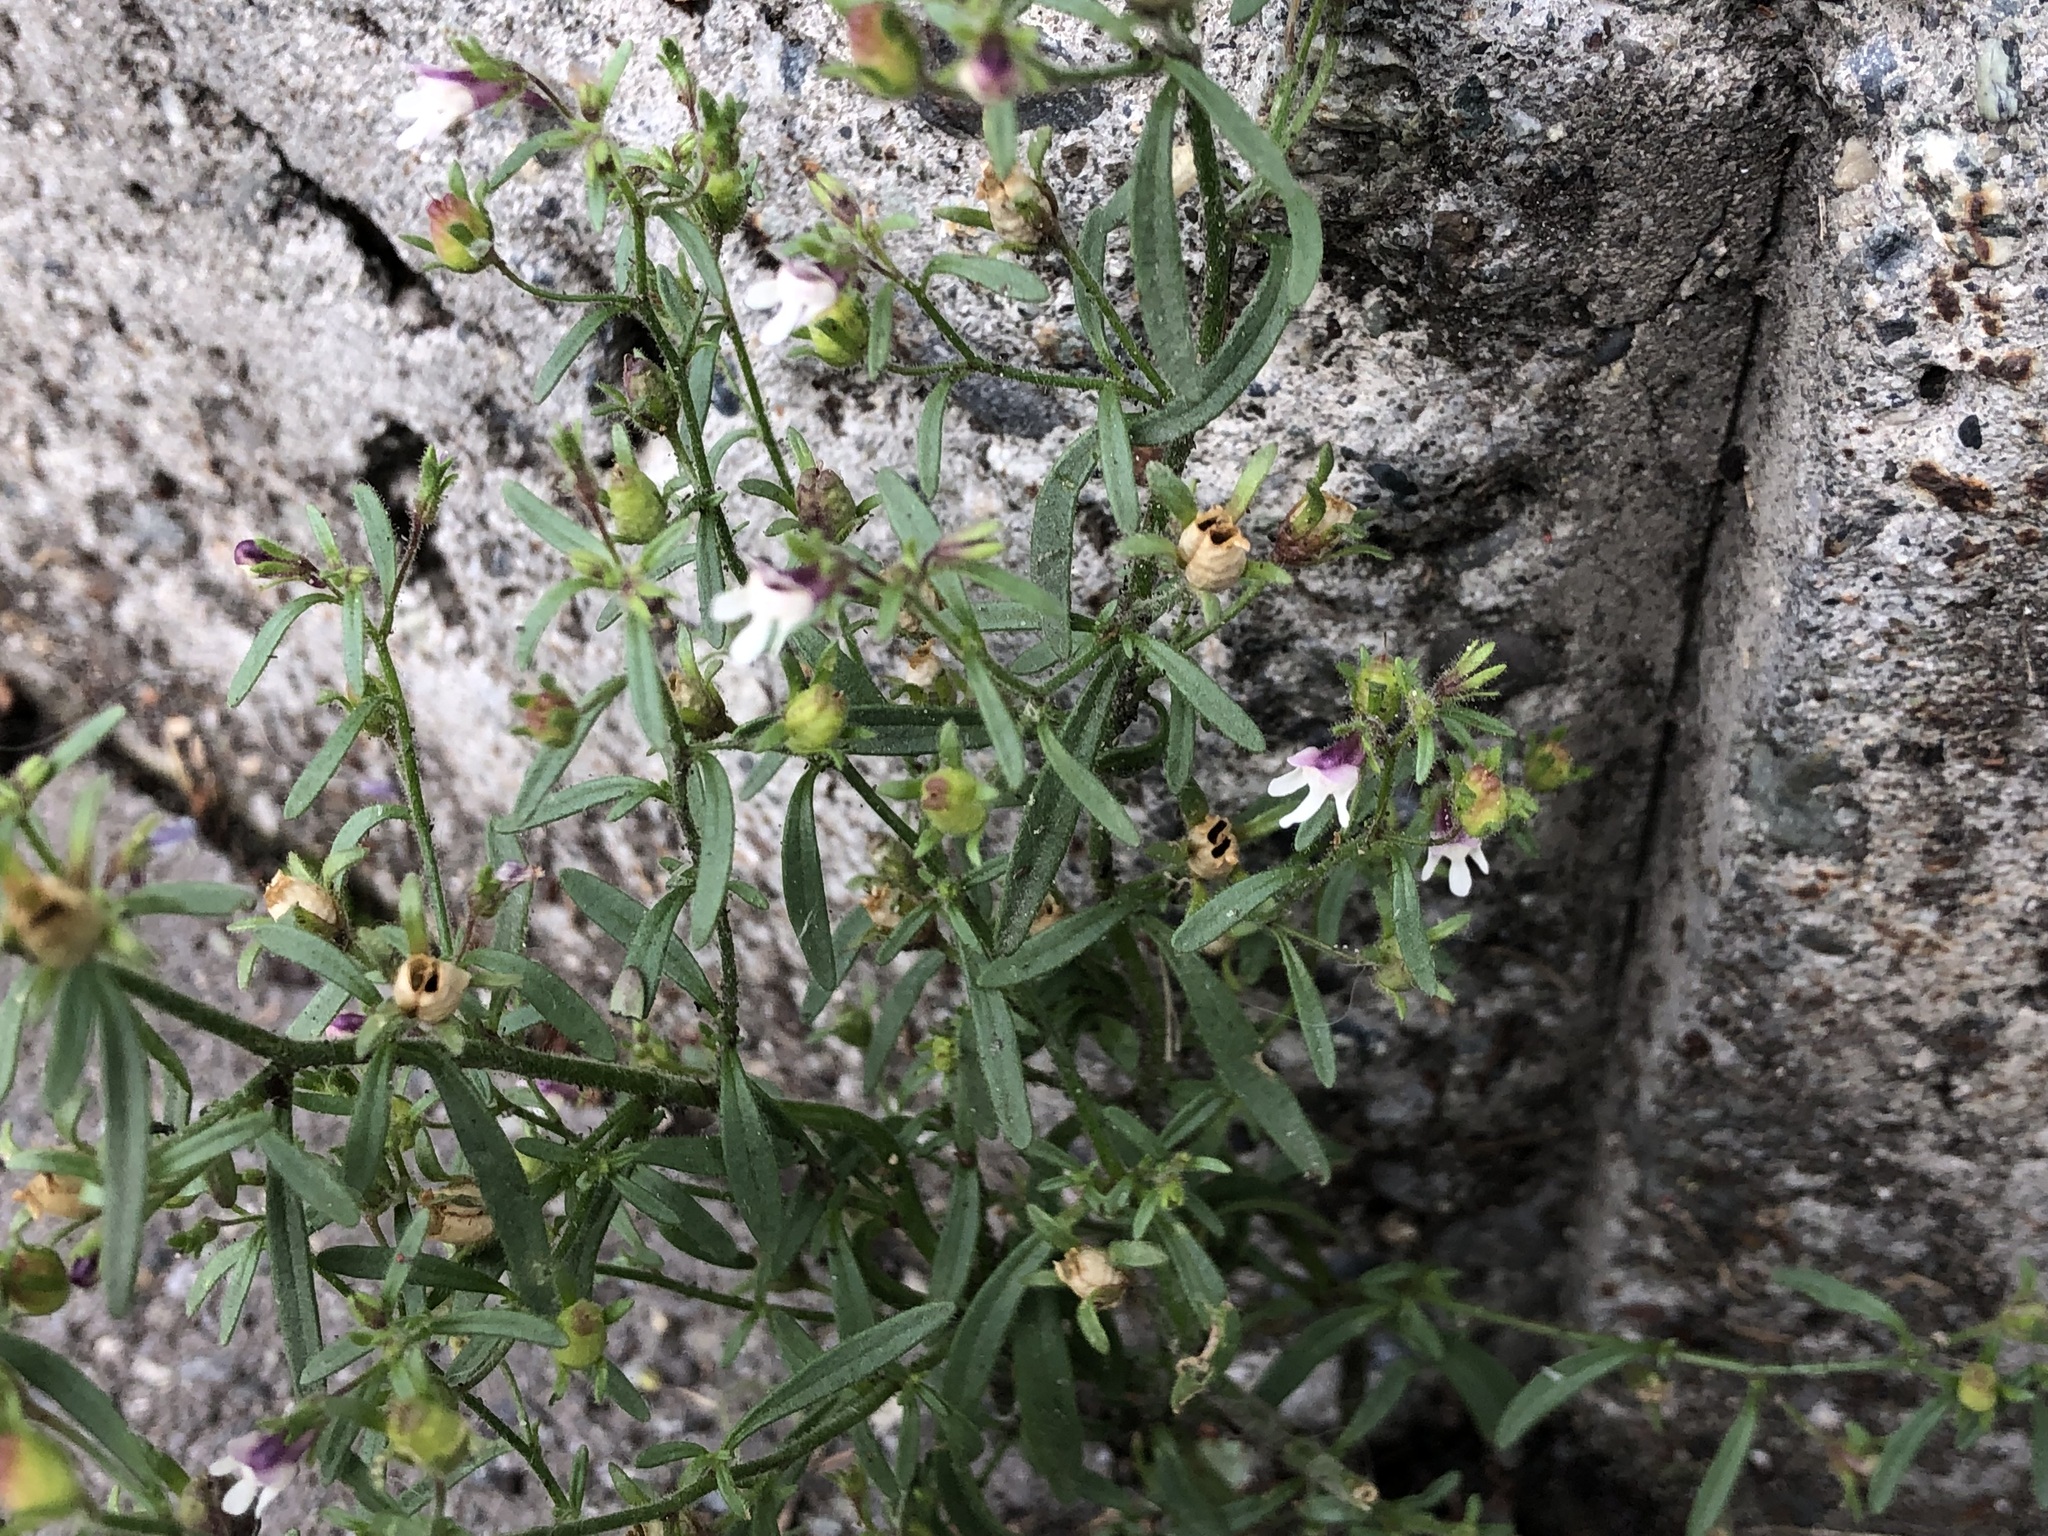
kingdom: Plantae
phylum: Tracheophyta
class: Magnoliopsida
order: Lamiales
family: Plantaginaceae
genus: Chaenorhinum
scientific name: Chaenorhinum minus
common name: Dwarf snapdragon
